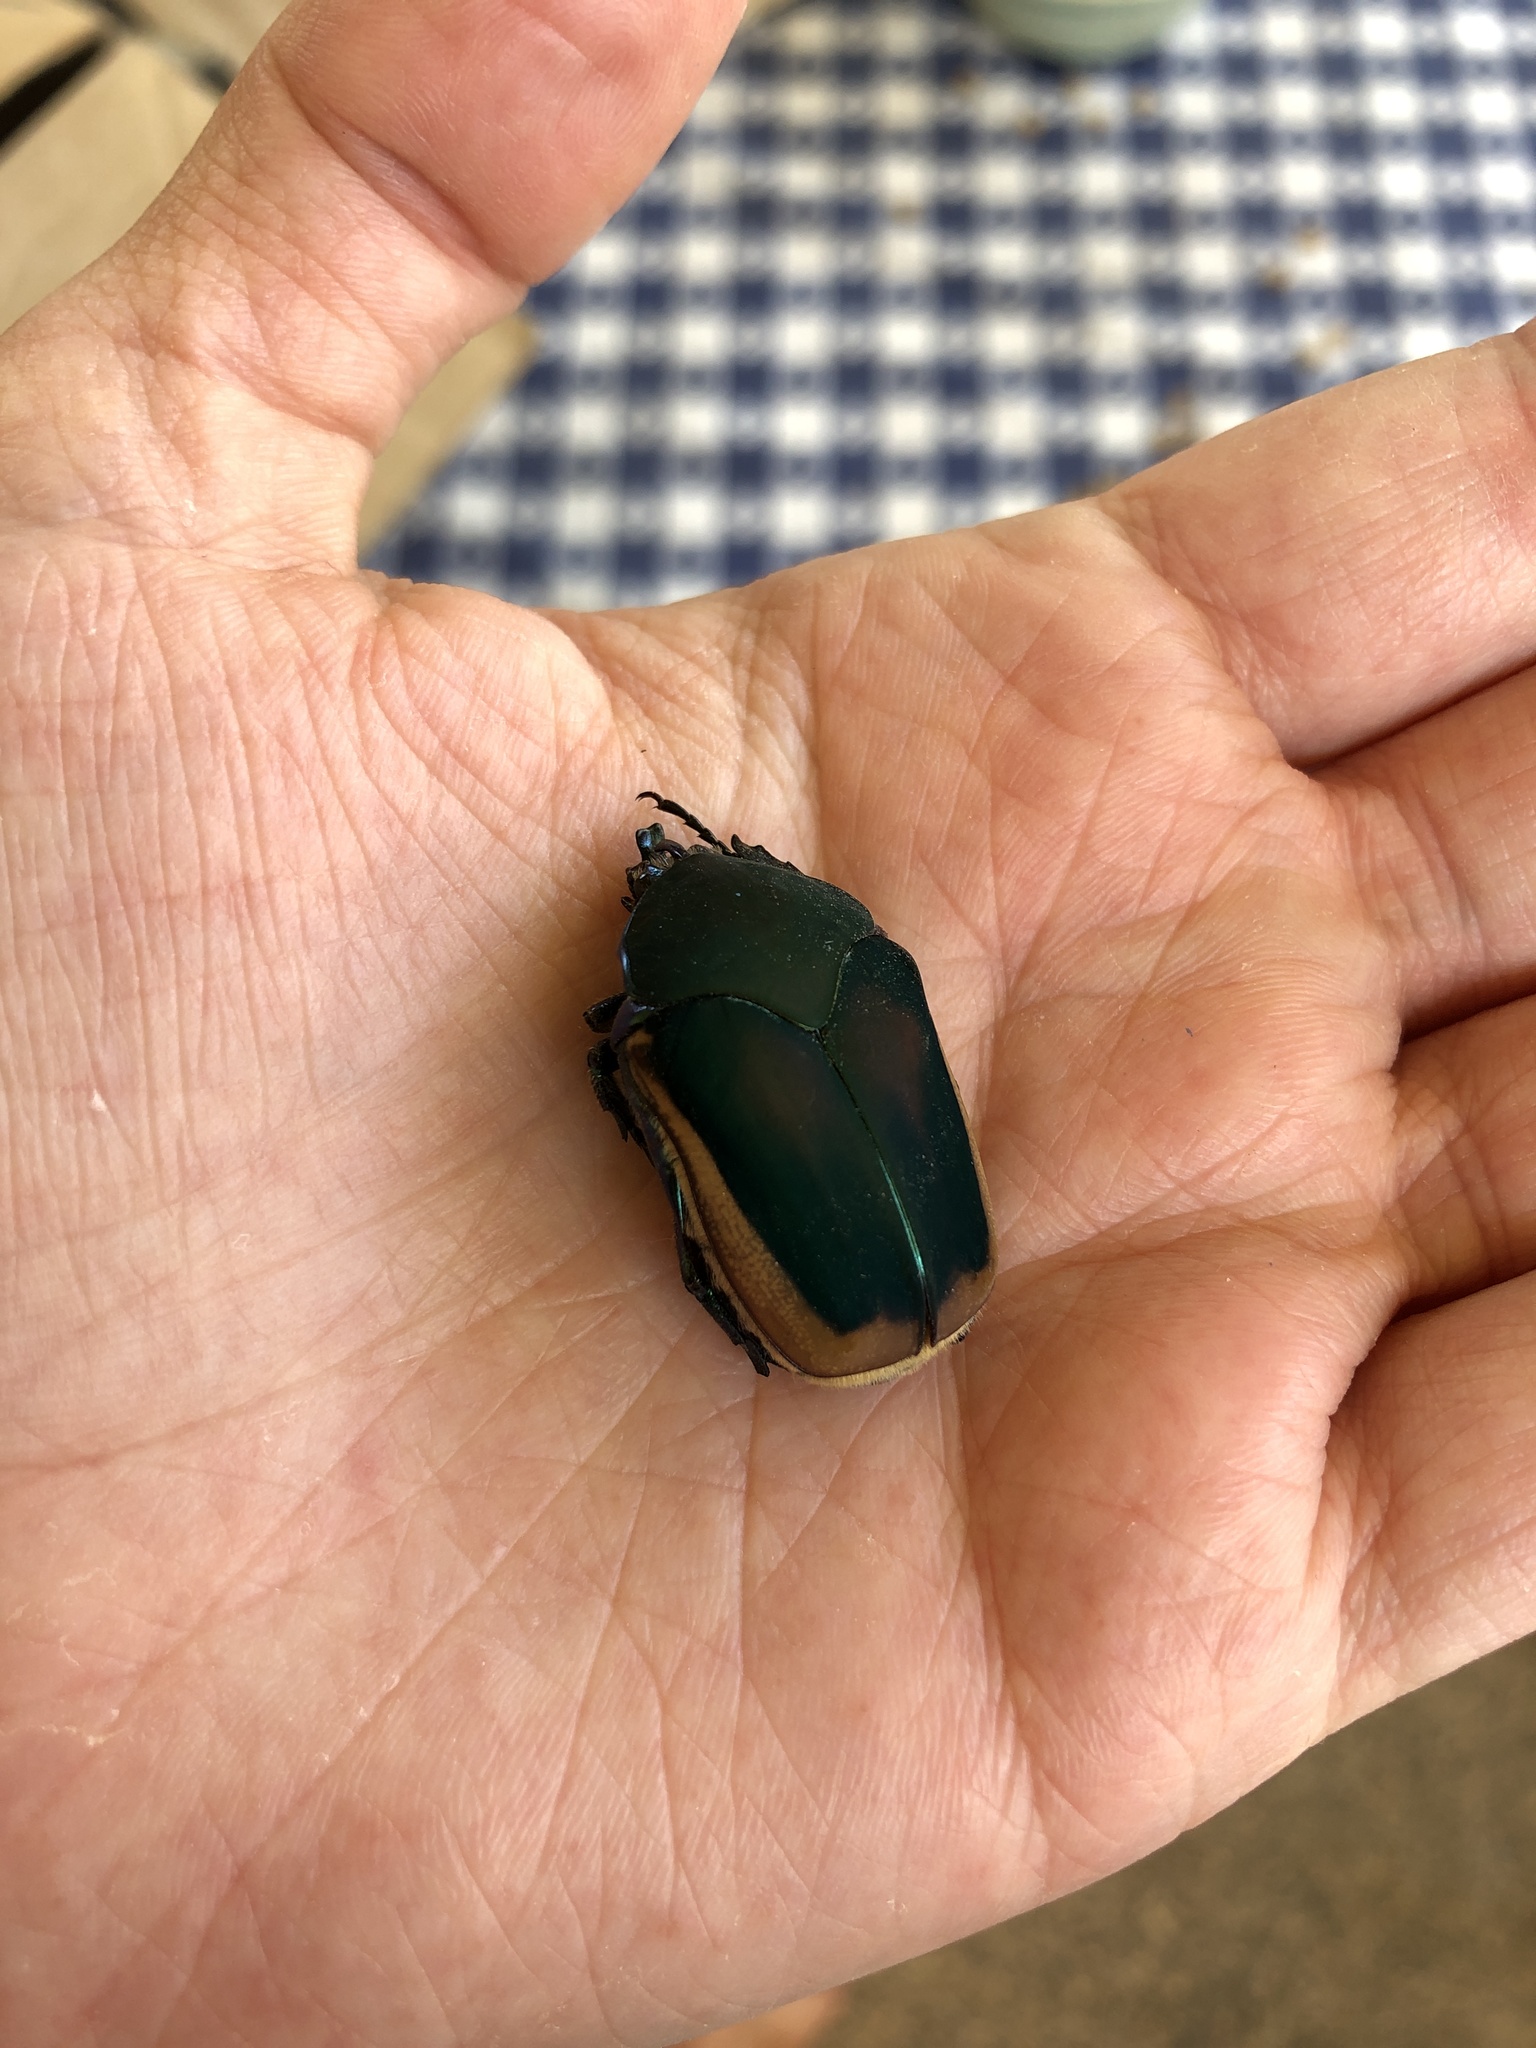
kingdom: Animalia
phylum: Arthropoda
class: Insecta
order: Coleoptera
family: Scarabaeidae
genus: Cotinis
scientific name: Cotinis mutabilis
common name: Figeater beetle
